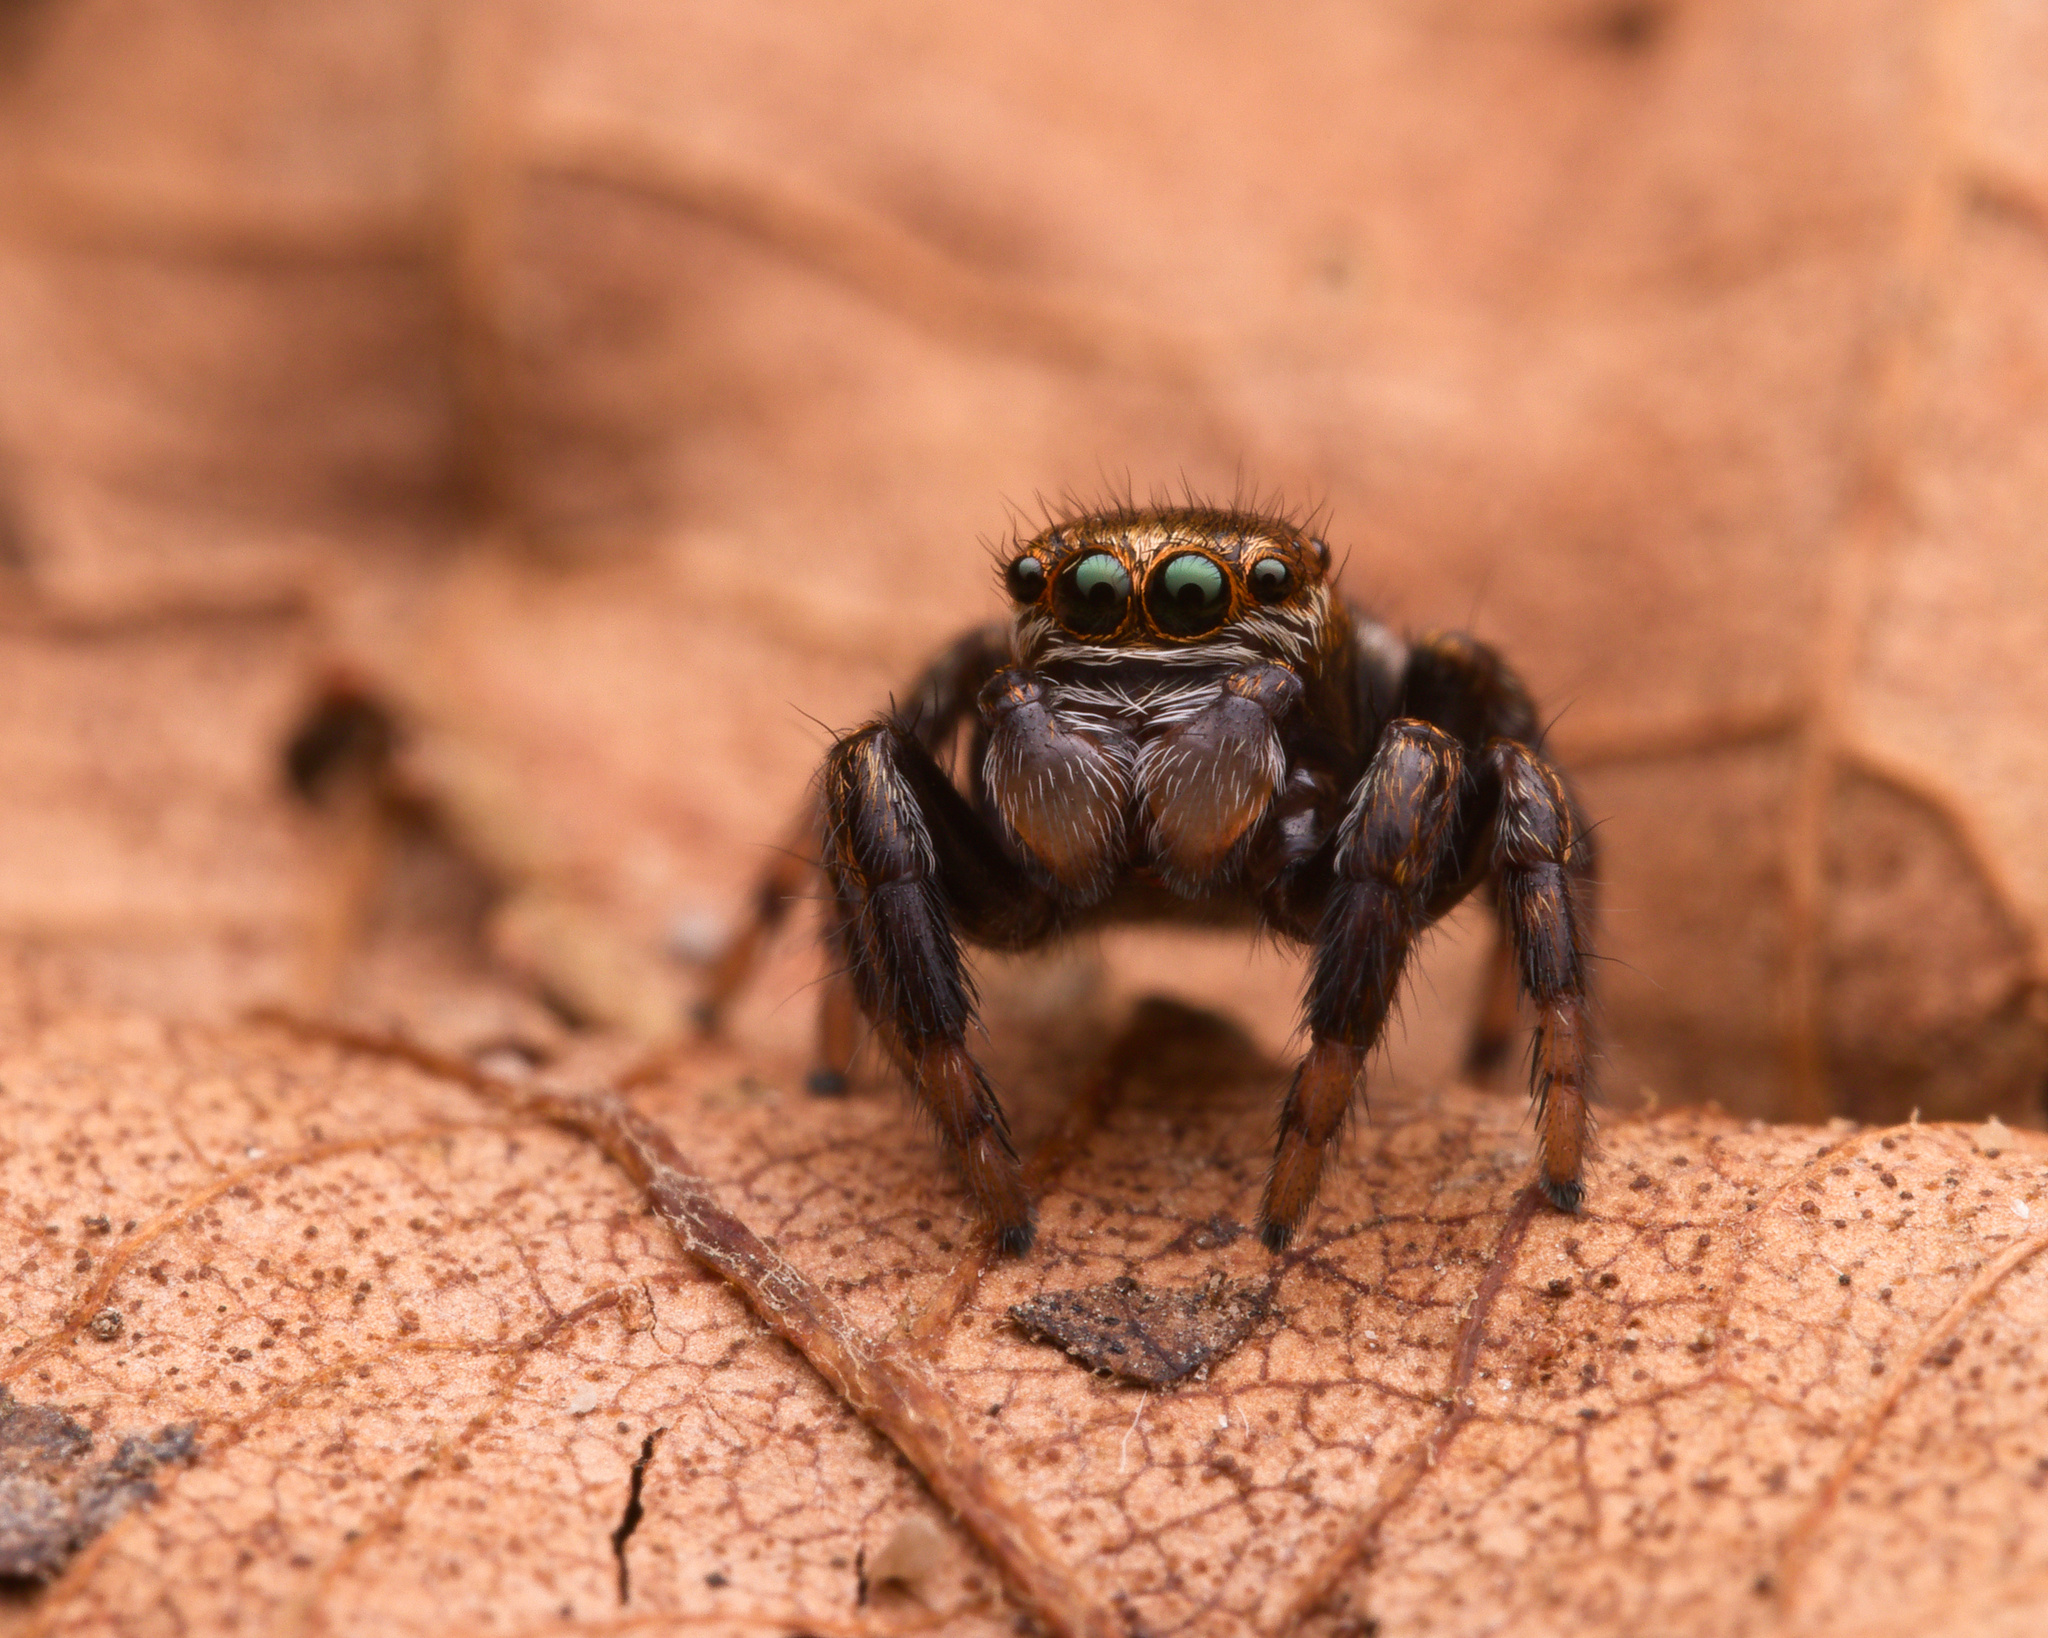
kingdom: Animalia
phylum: Arthropoda
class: Arachnida
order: Araneae
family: Salticidae
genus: Evarcha
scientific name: Evarcha arcuata
